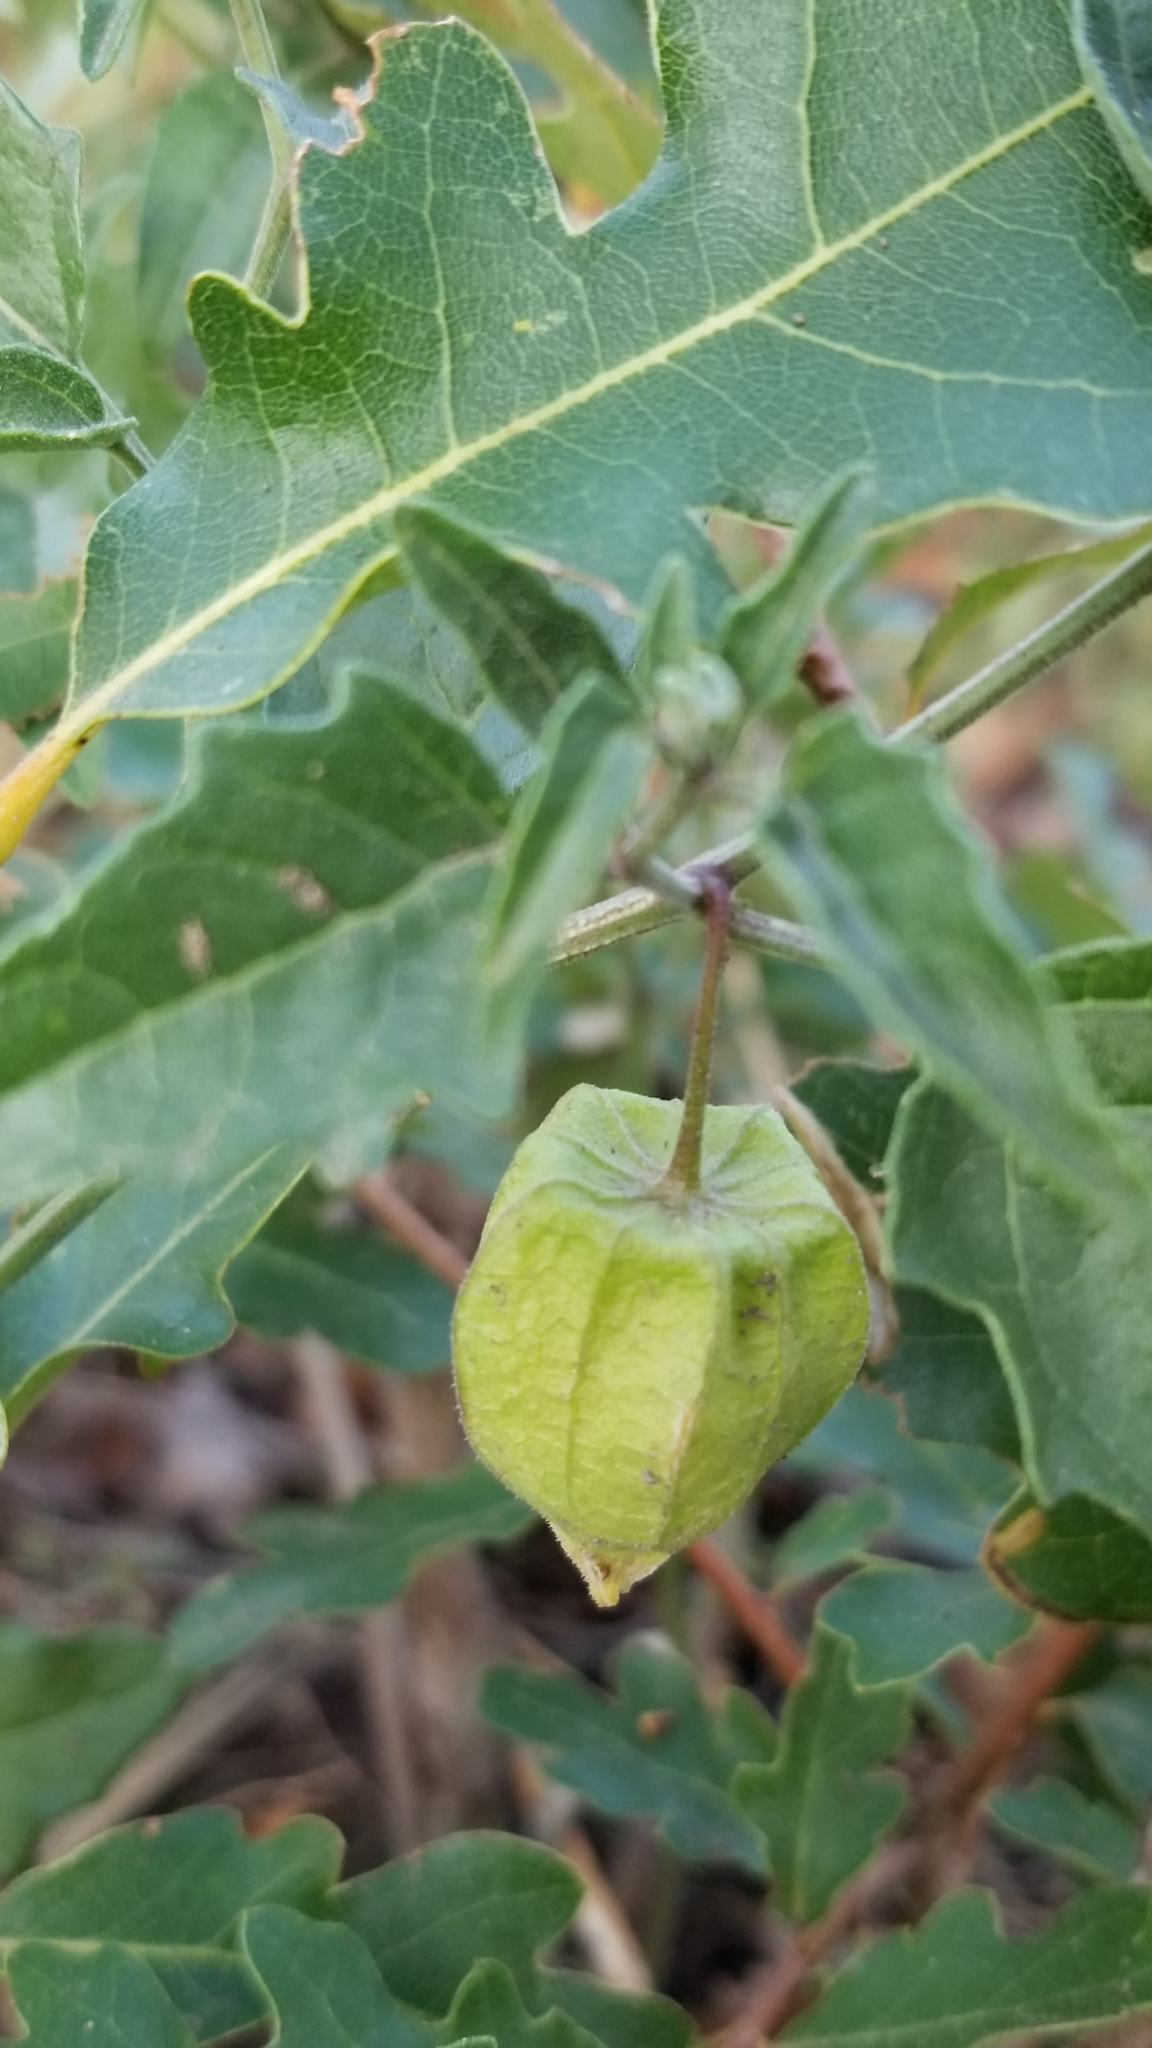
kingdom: Plantae
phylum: Tracheophyta
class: Magnoliopsida
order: Solanales
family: Solanaceae
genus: Physalis
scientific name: Physalis hederifolia
